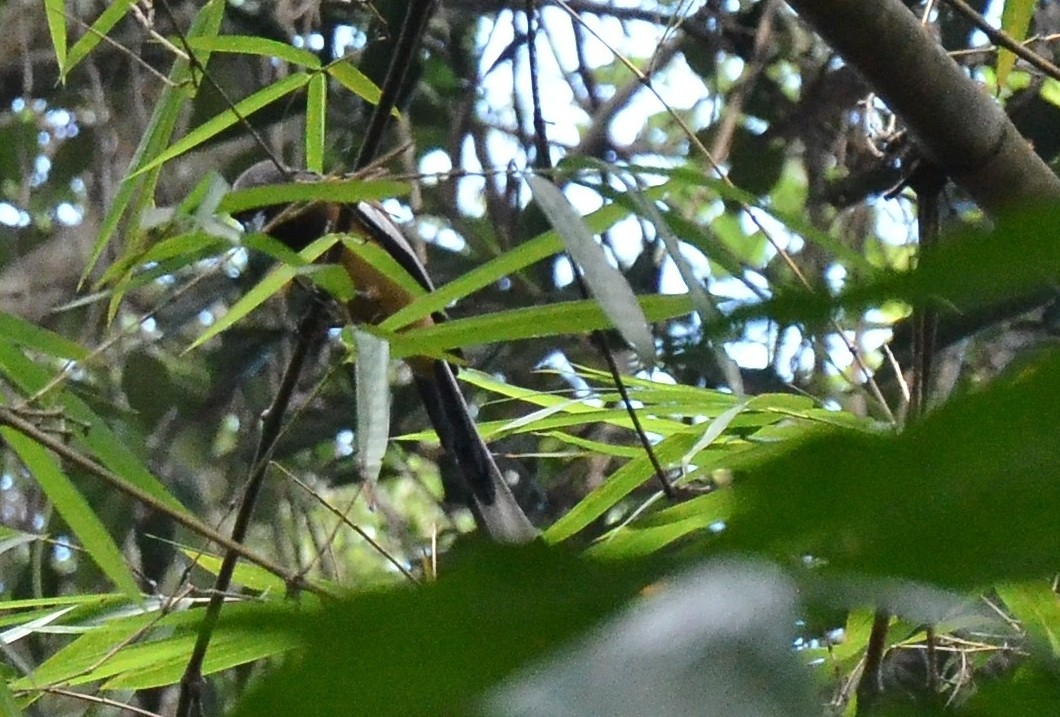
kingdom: Animalia
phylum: Chordata
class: Aves
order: Passeriformes
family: Corvidae
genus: Dendrocitta
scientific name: Dendrocitta vagabunda
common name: Rufous treepie
